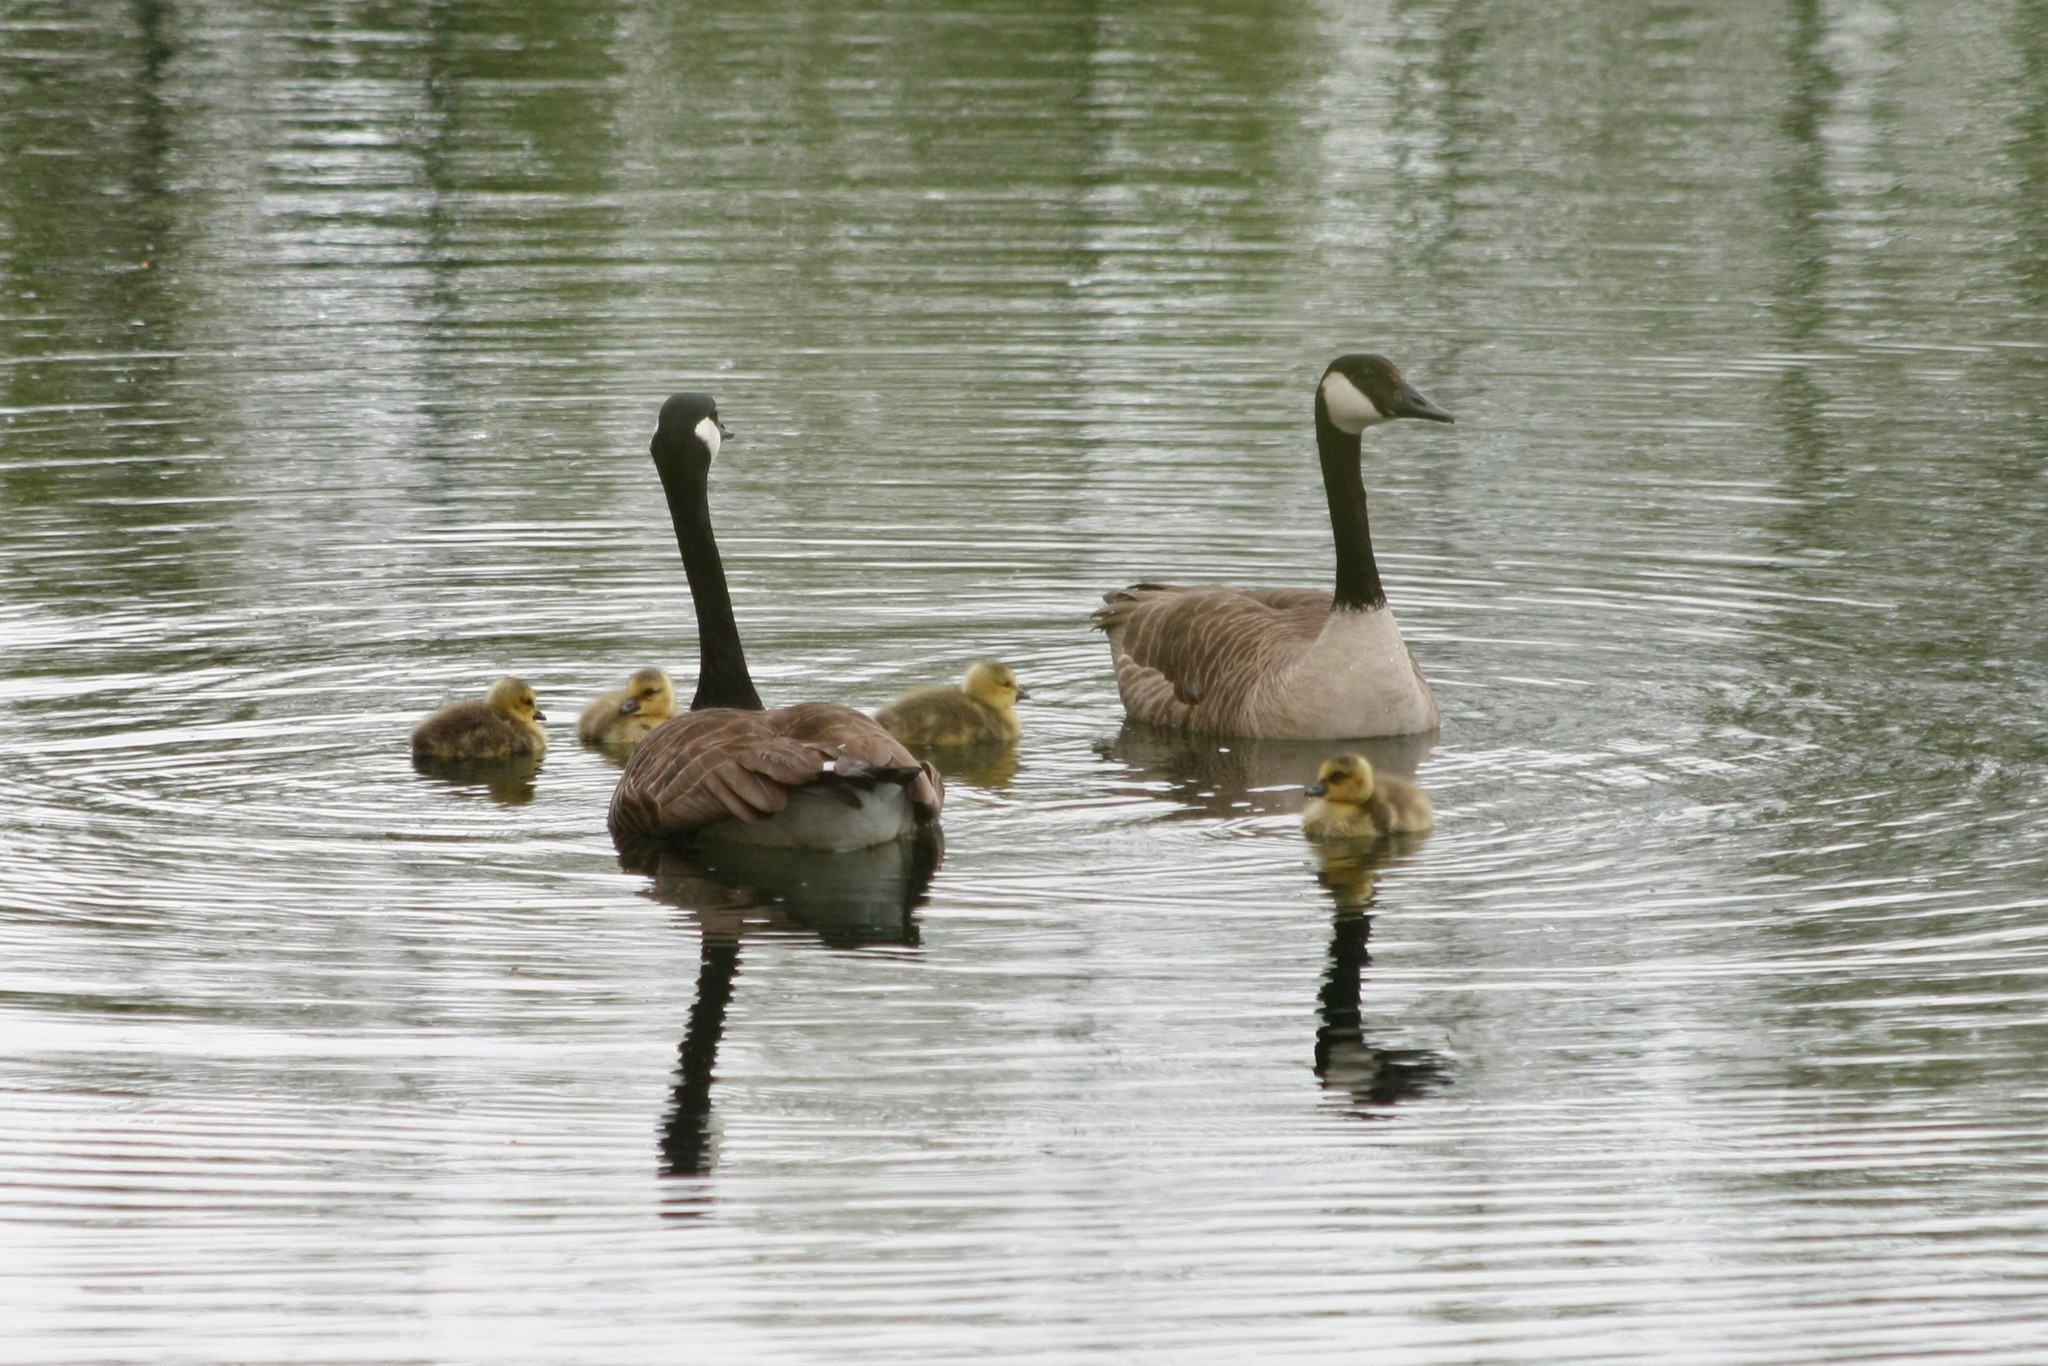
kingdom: Animalia
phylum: Chordata
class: Aves
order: Anseriformes
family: Anatidae
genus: Branta
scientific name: Branta canadensis
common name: Canada goose
